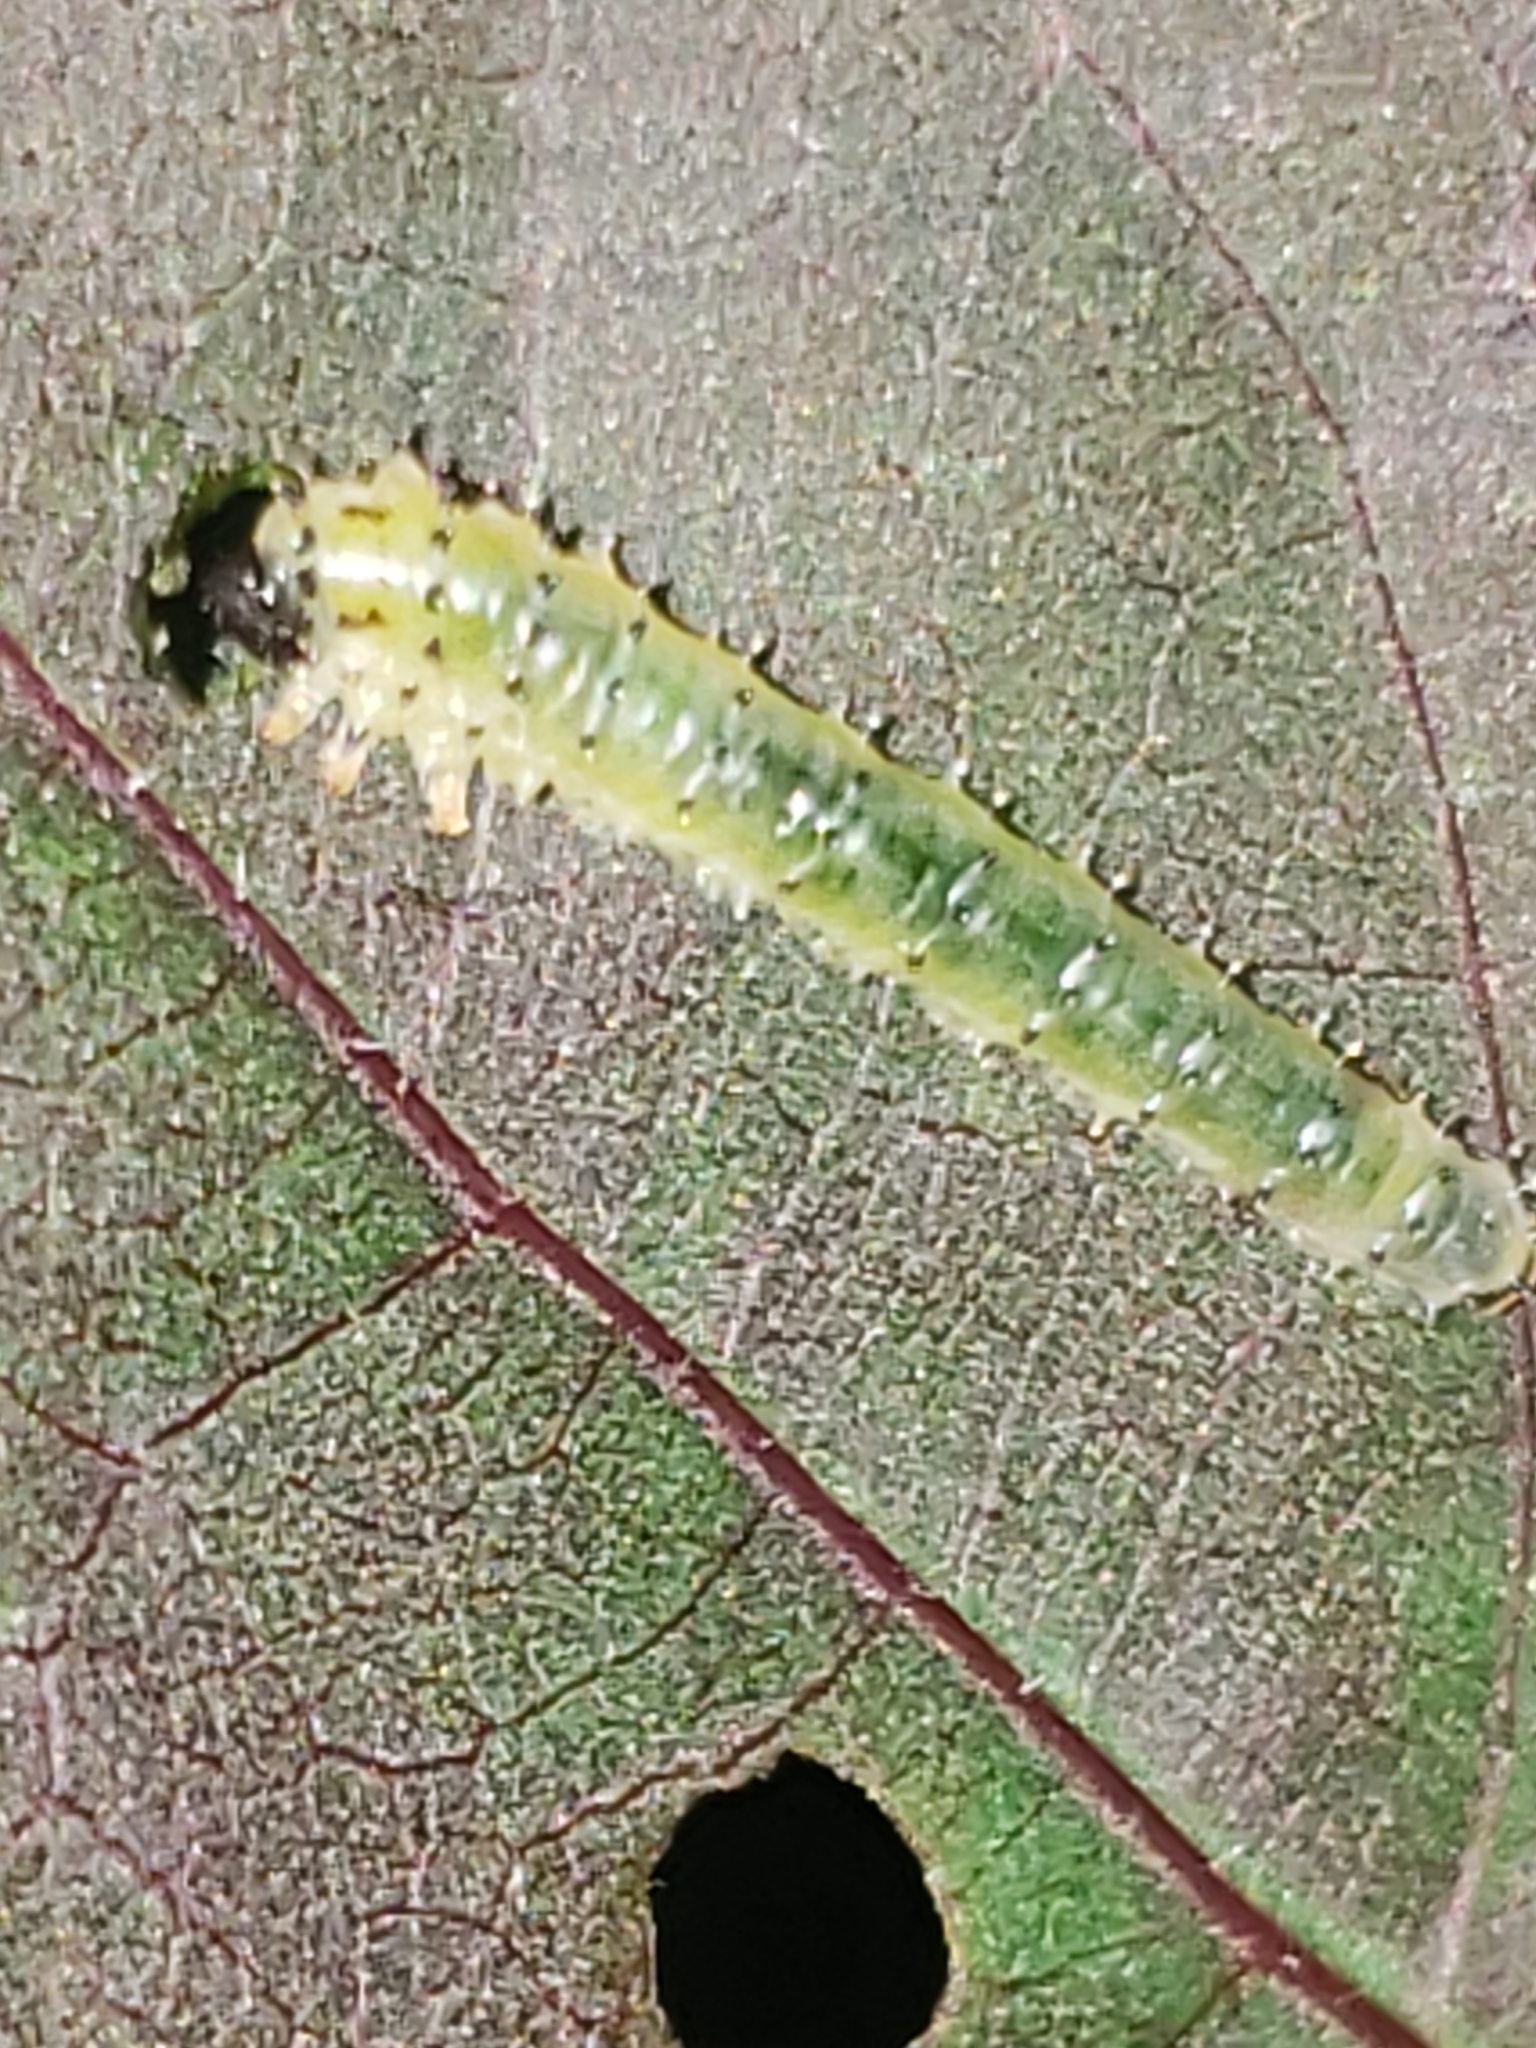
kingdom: Animalia
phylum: Arthropoda
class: Insecta
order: Hymenoptera
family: Argidae
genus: Atomacera
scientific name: Atomacera
